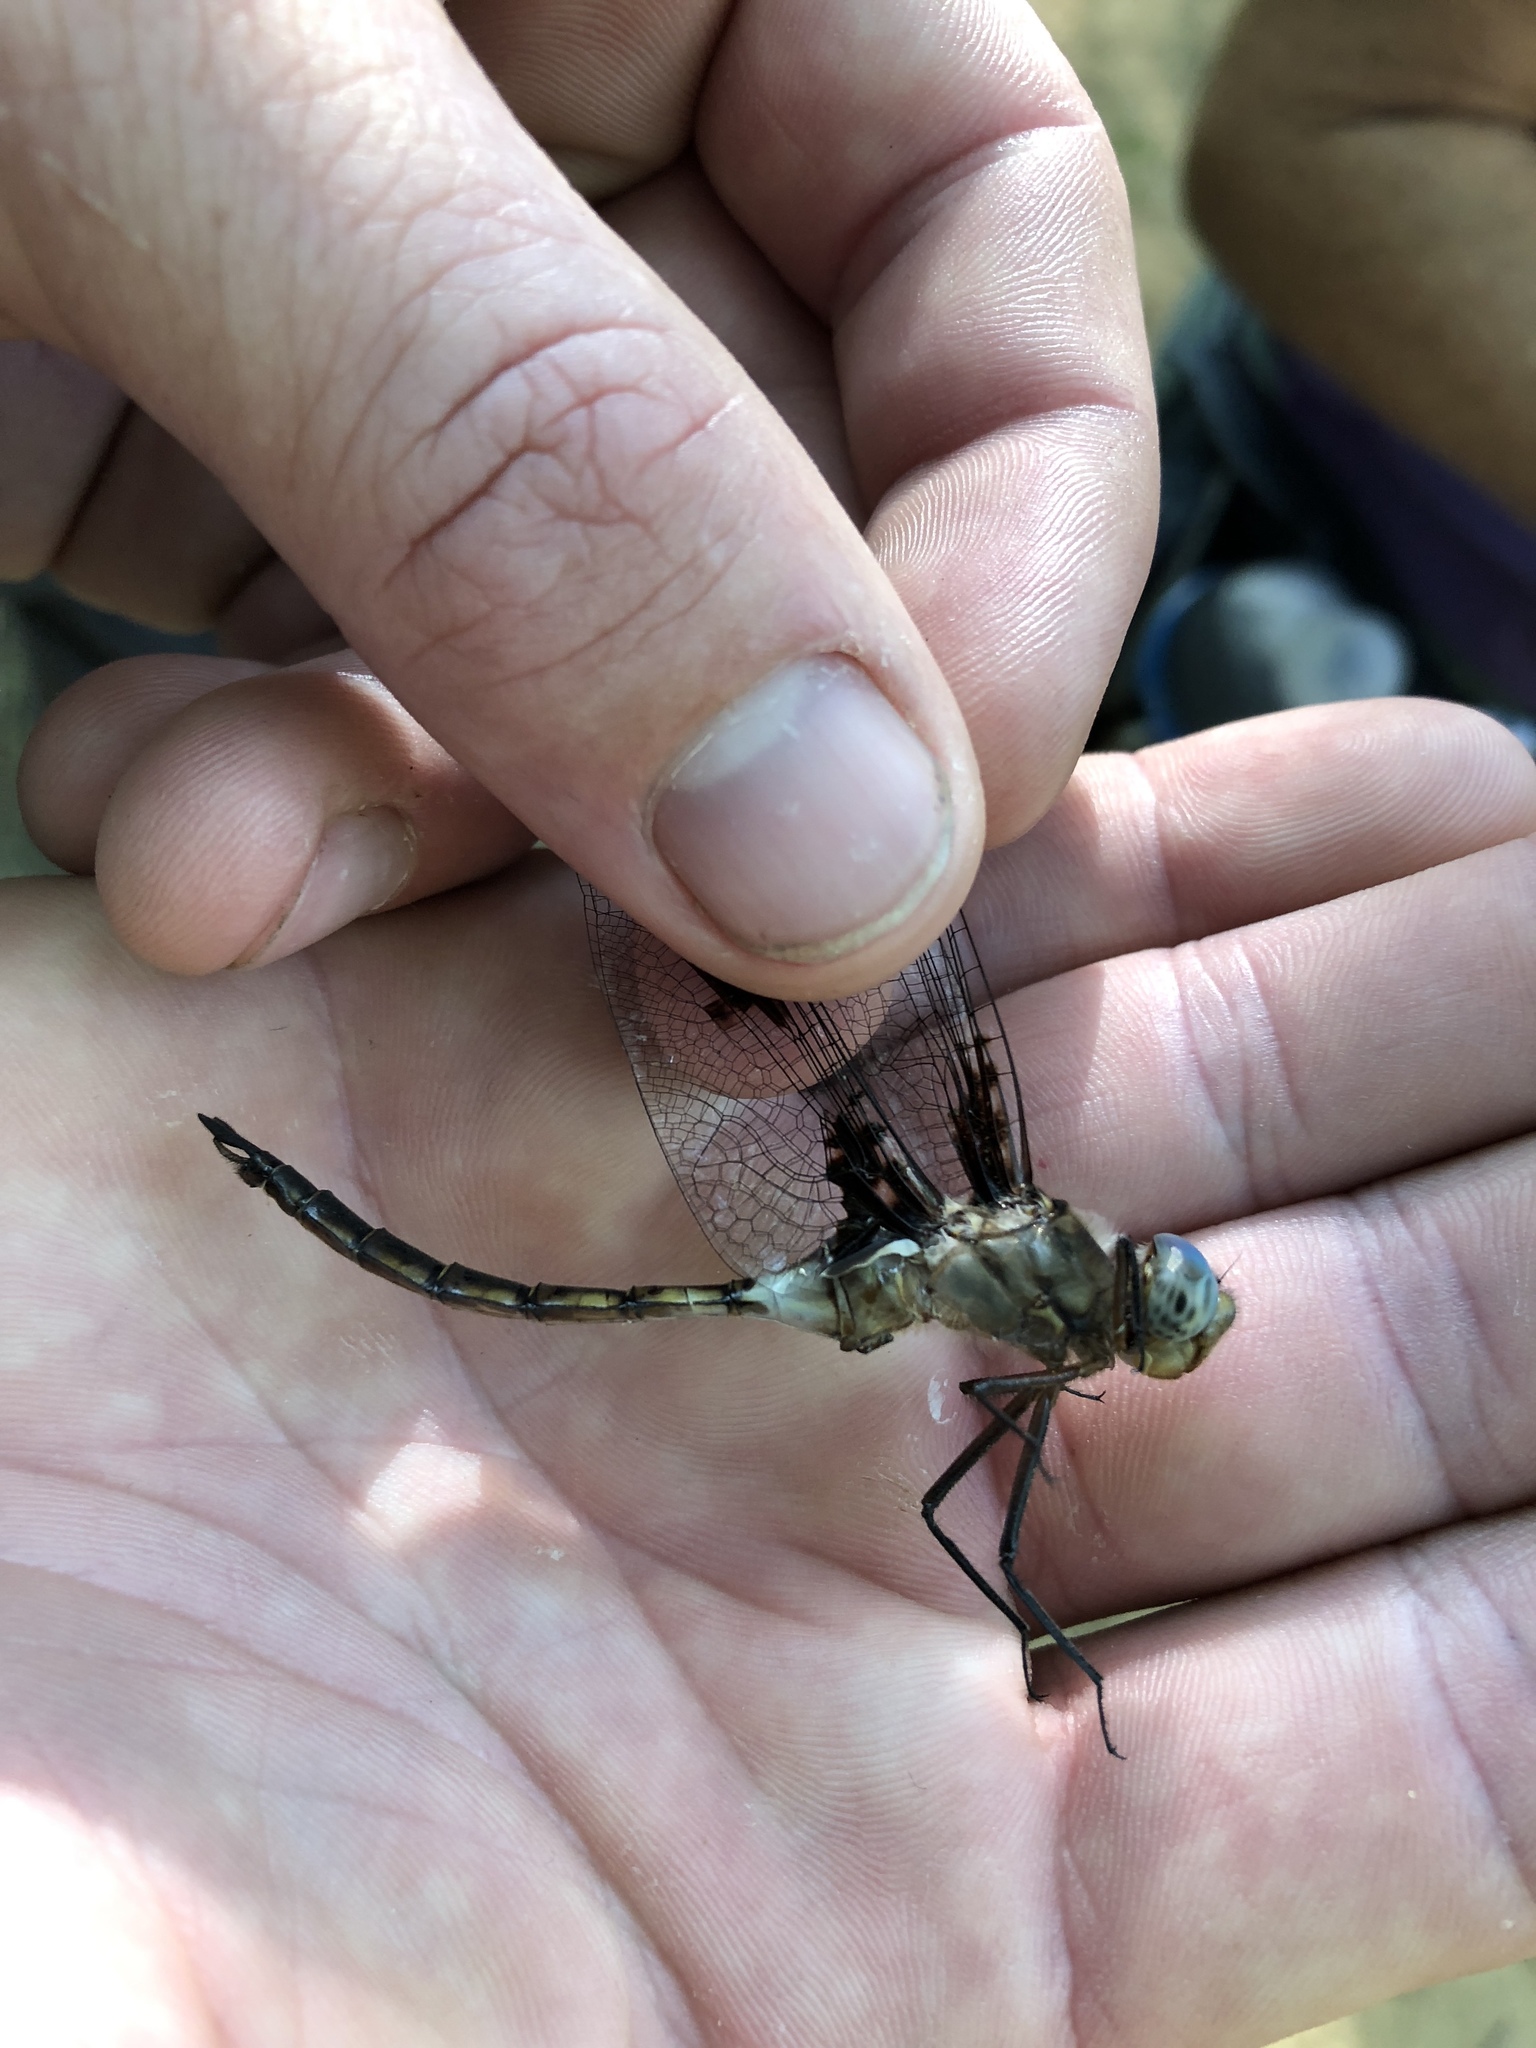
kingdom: Animalia
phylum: Arthropoda
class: Insecta
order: Odonata
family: Corduliidae
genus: Epitheca
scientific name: Epitheca princeps
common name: Prince baskettail
